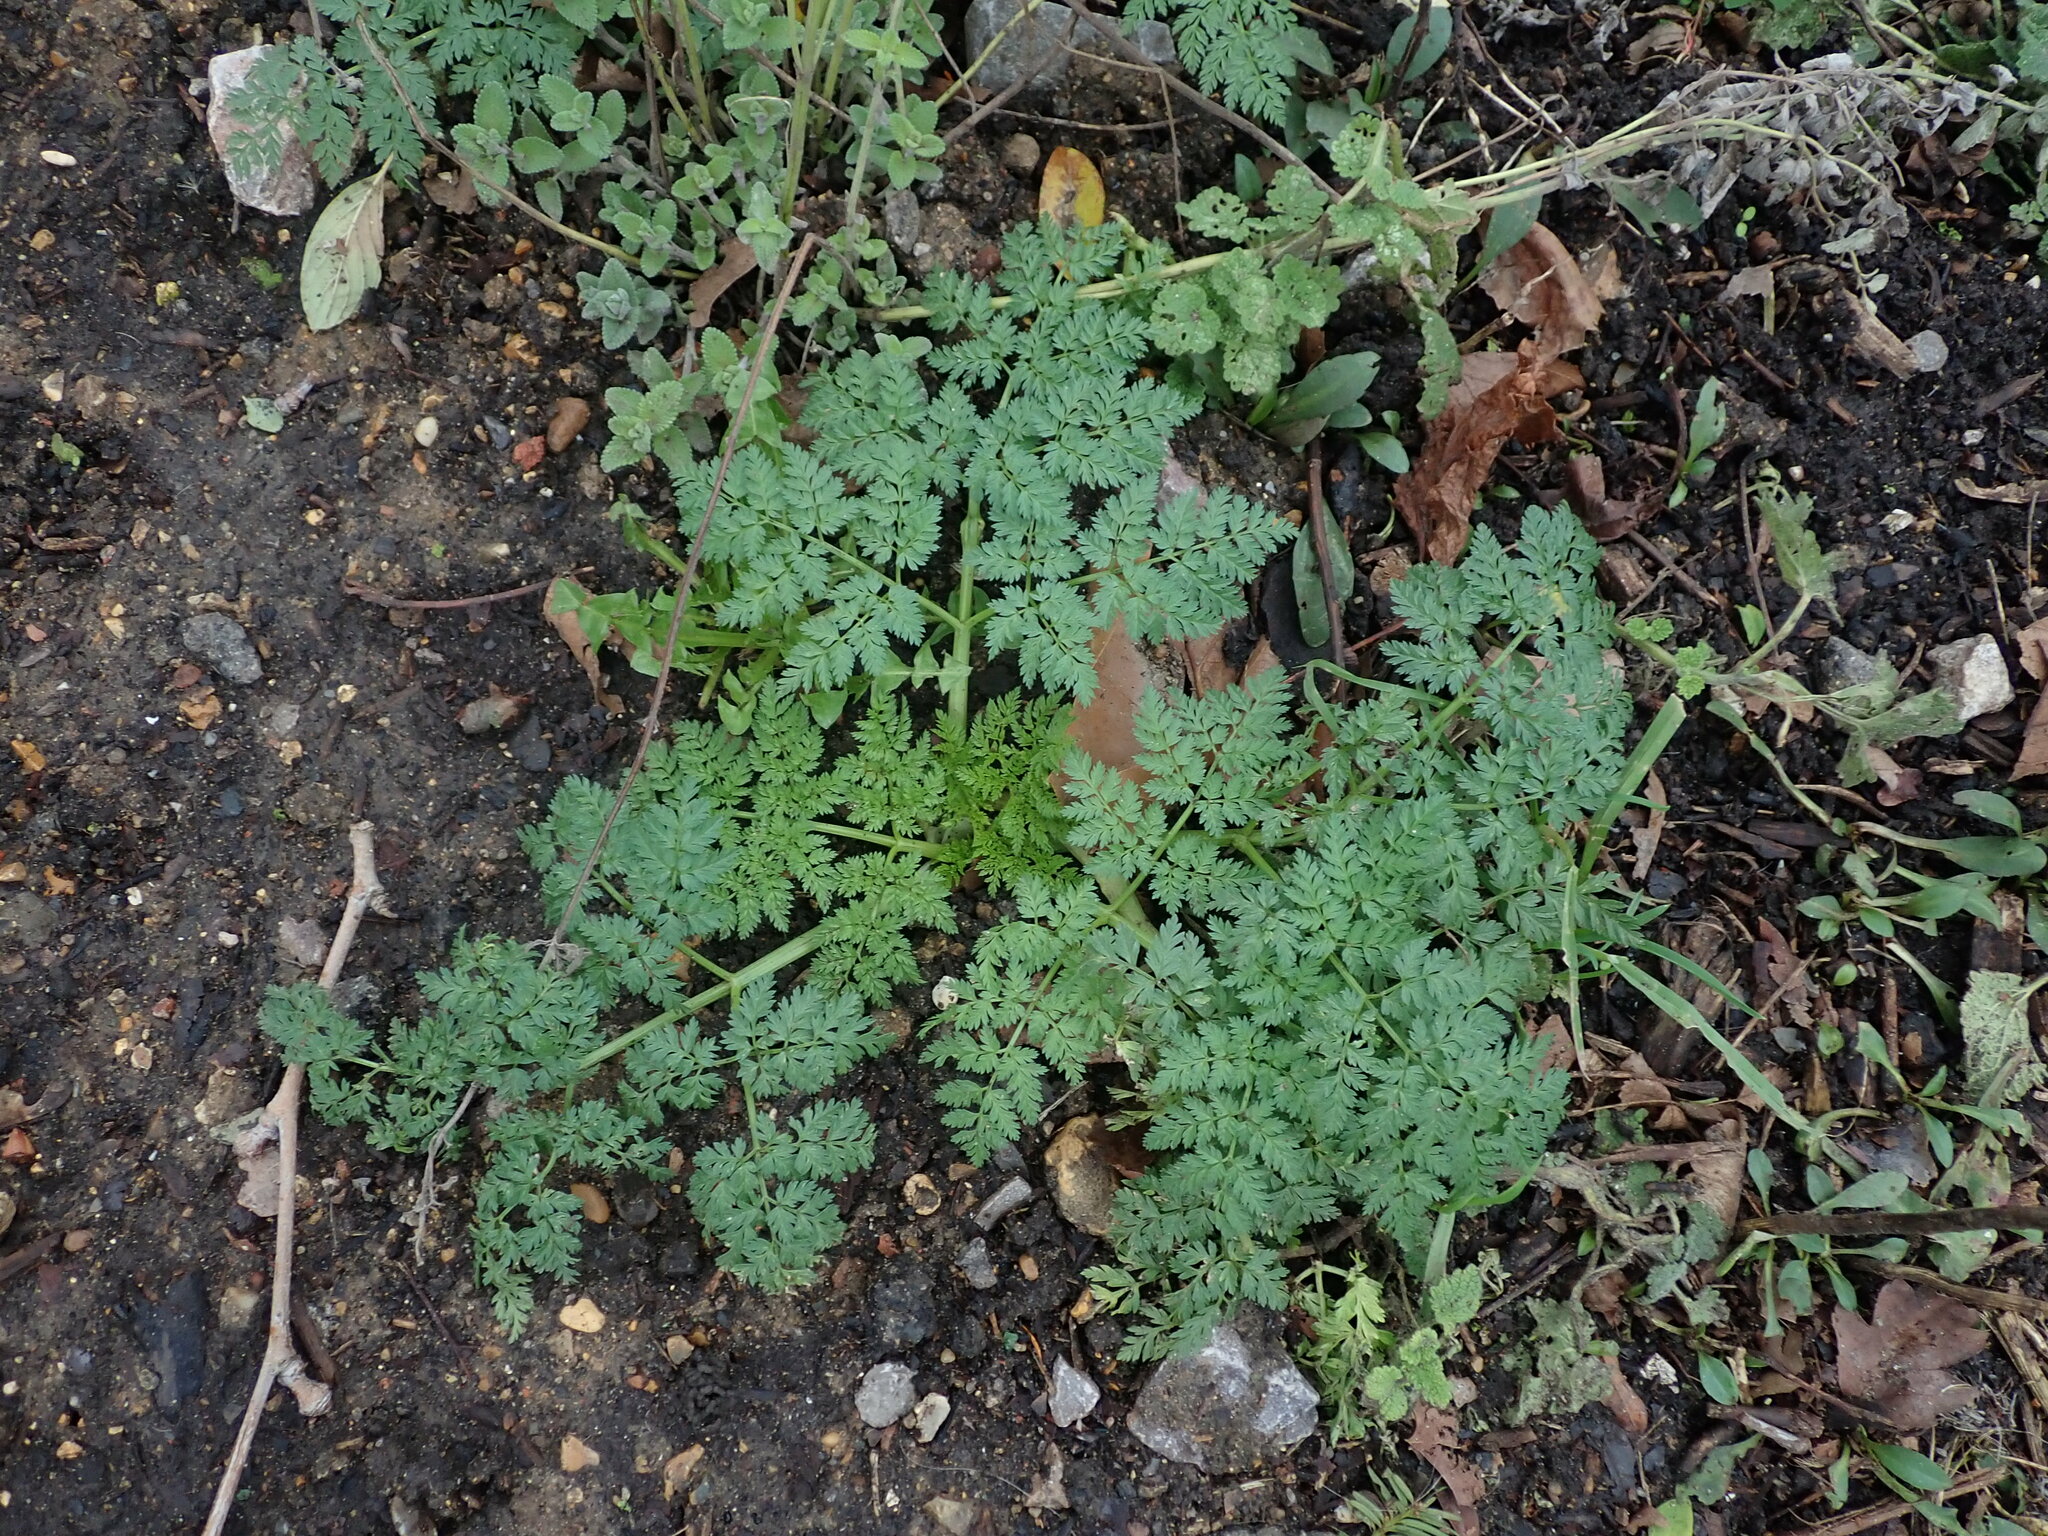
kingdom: Plantae
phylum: Tracheophyta
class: Magnoliopsida
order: Apiales
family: Apiaceae
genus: Conium
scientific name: Conium maculatum
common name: Hemlock
